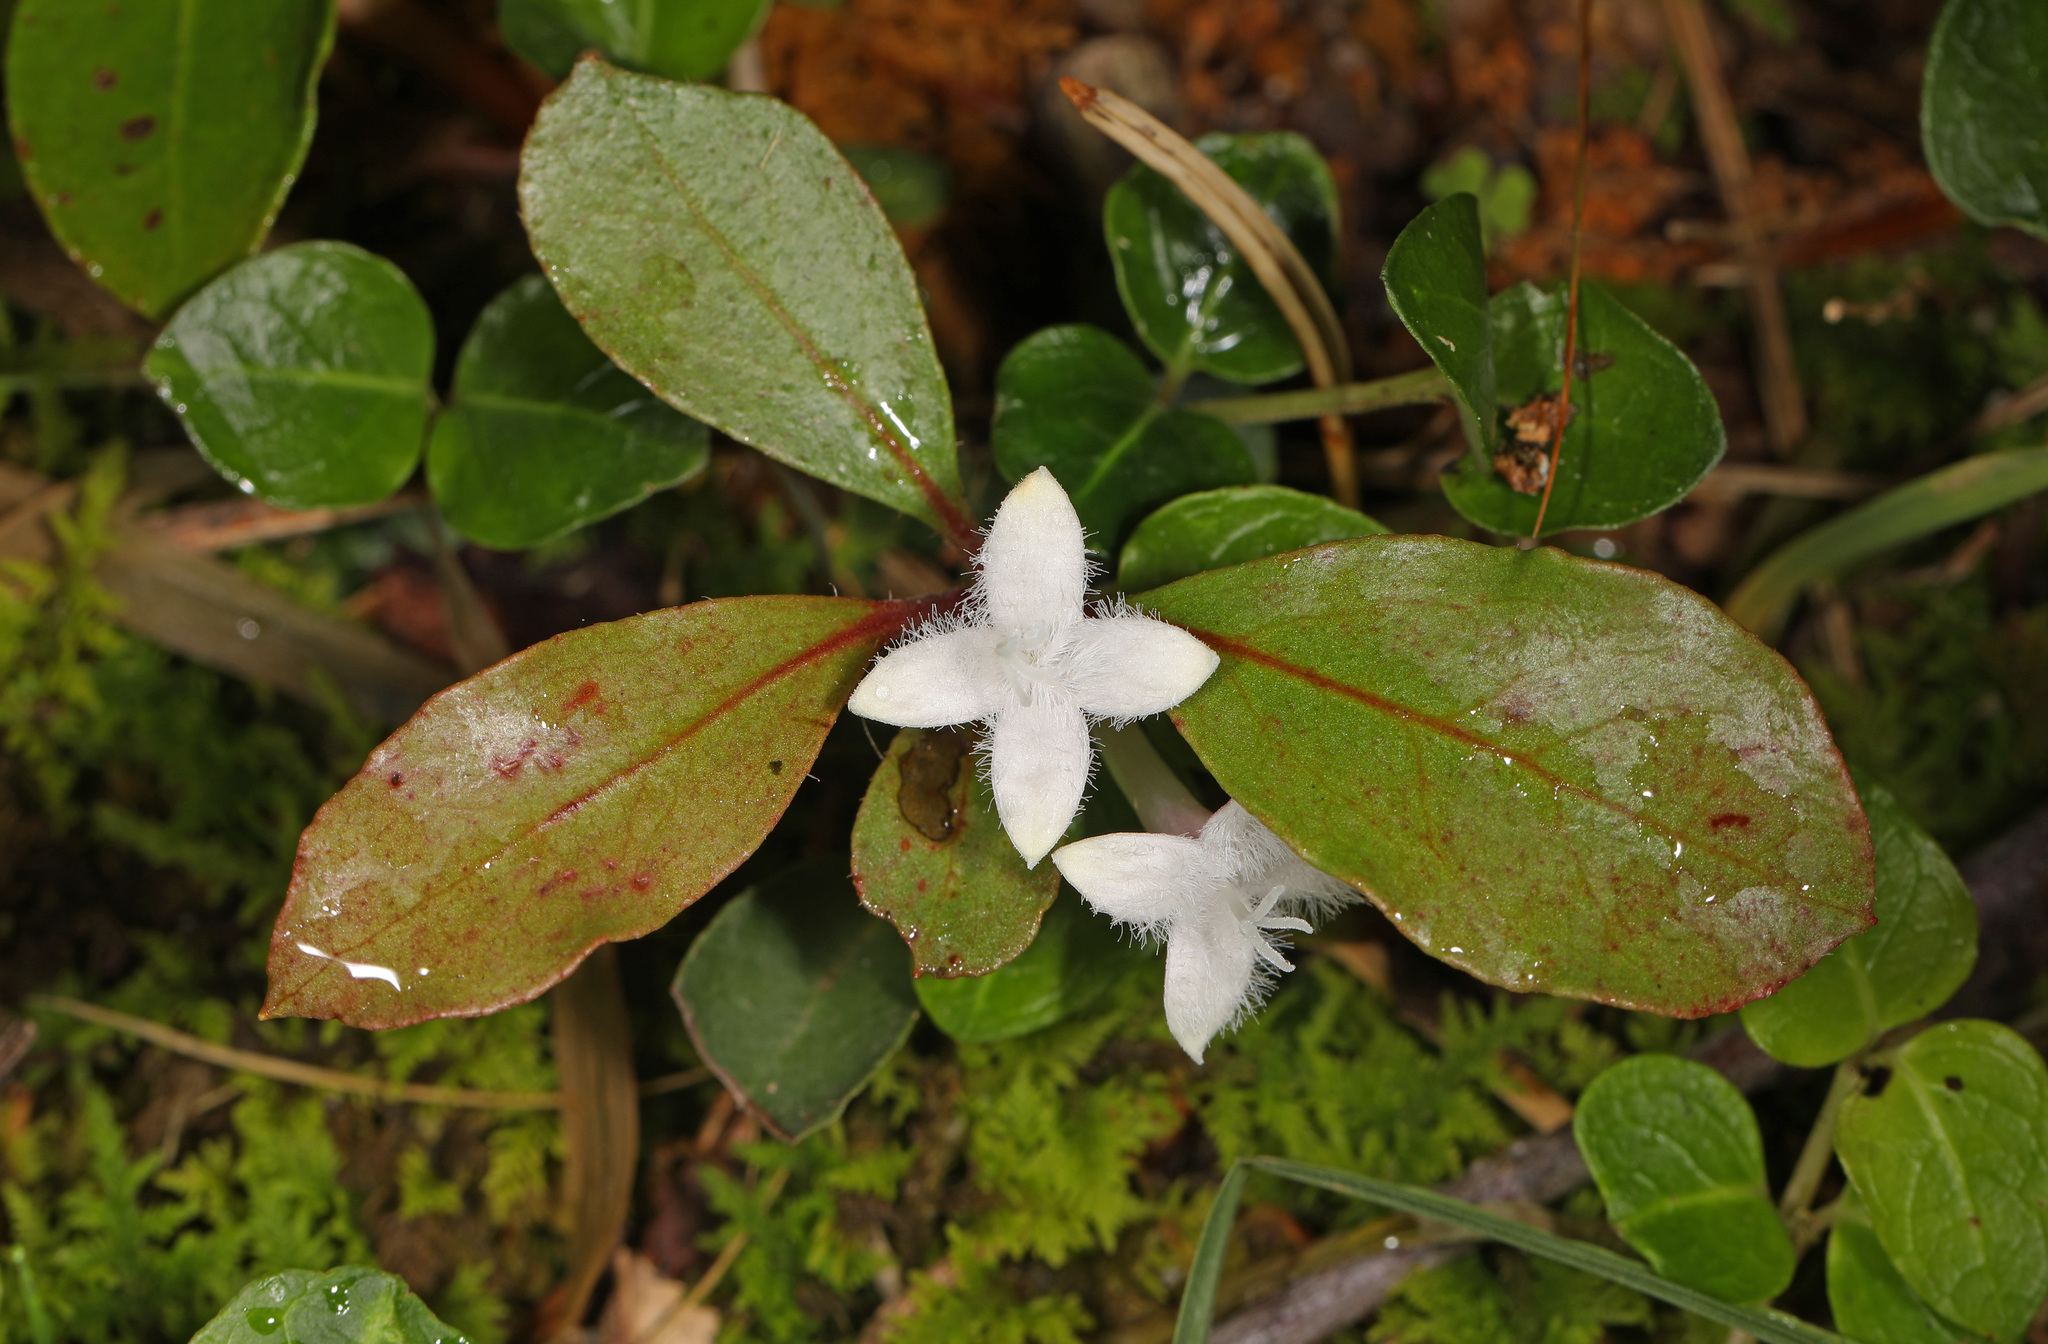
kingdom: Plantae
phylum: Tracheophyta
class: Magnoliopsida
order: Gentianales
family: Rubiaceae
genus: Mitchella
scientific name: Mitchella repens
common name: Partridge-berry
